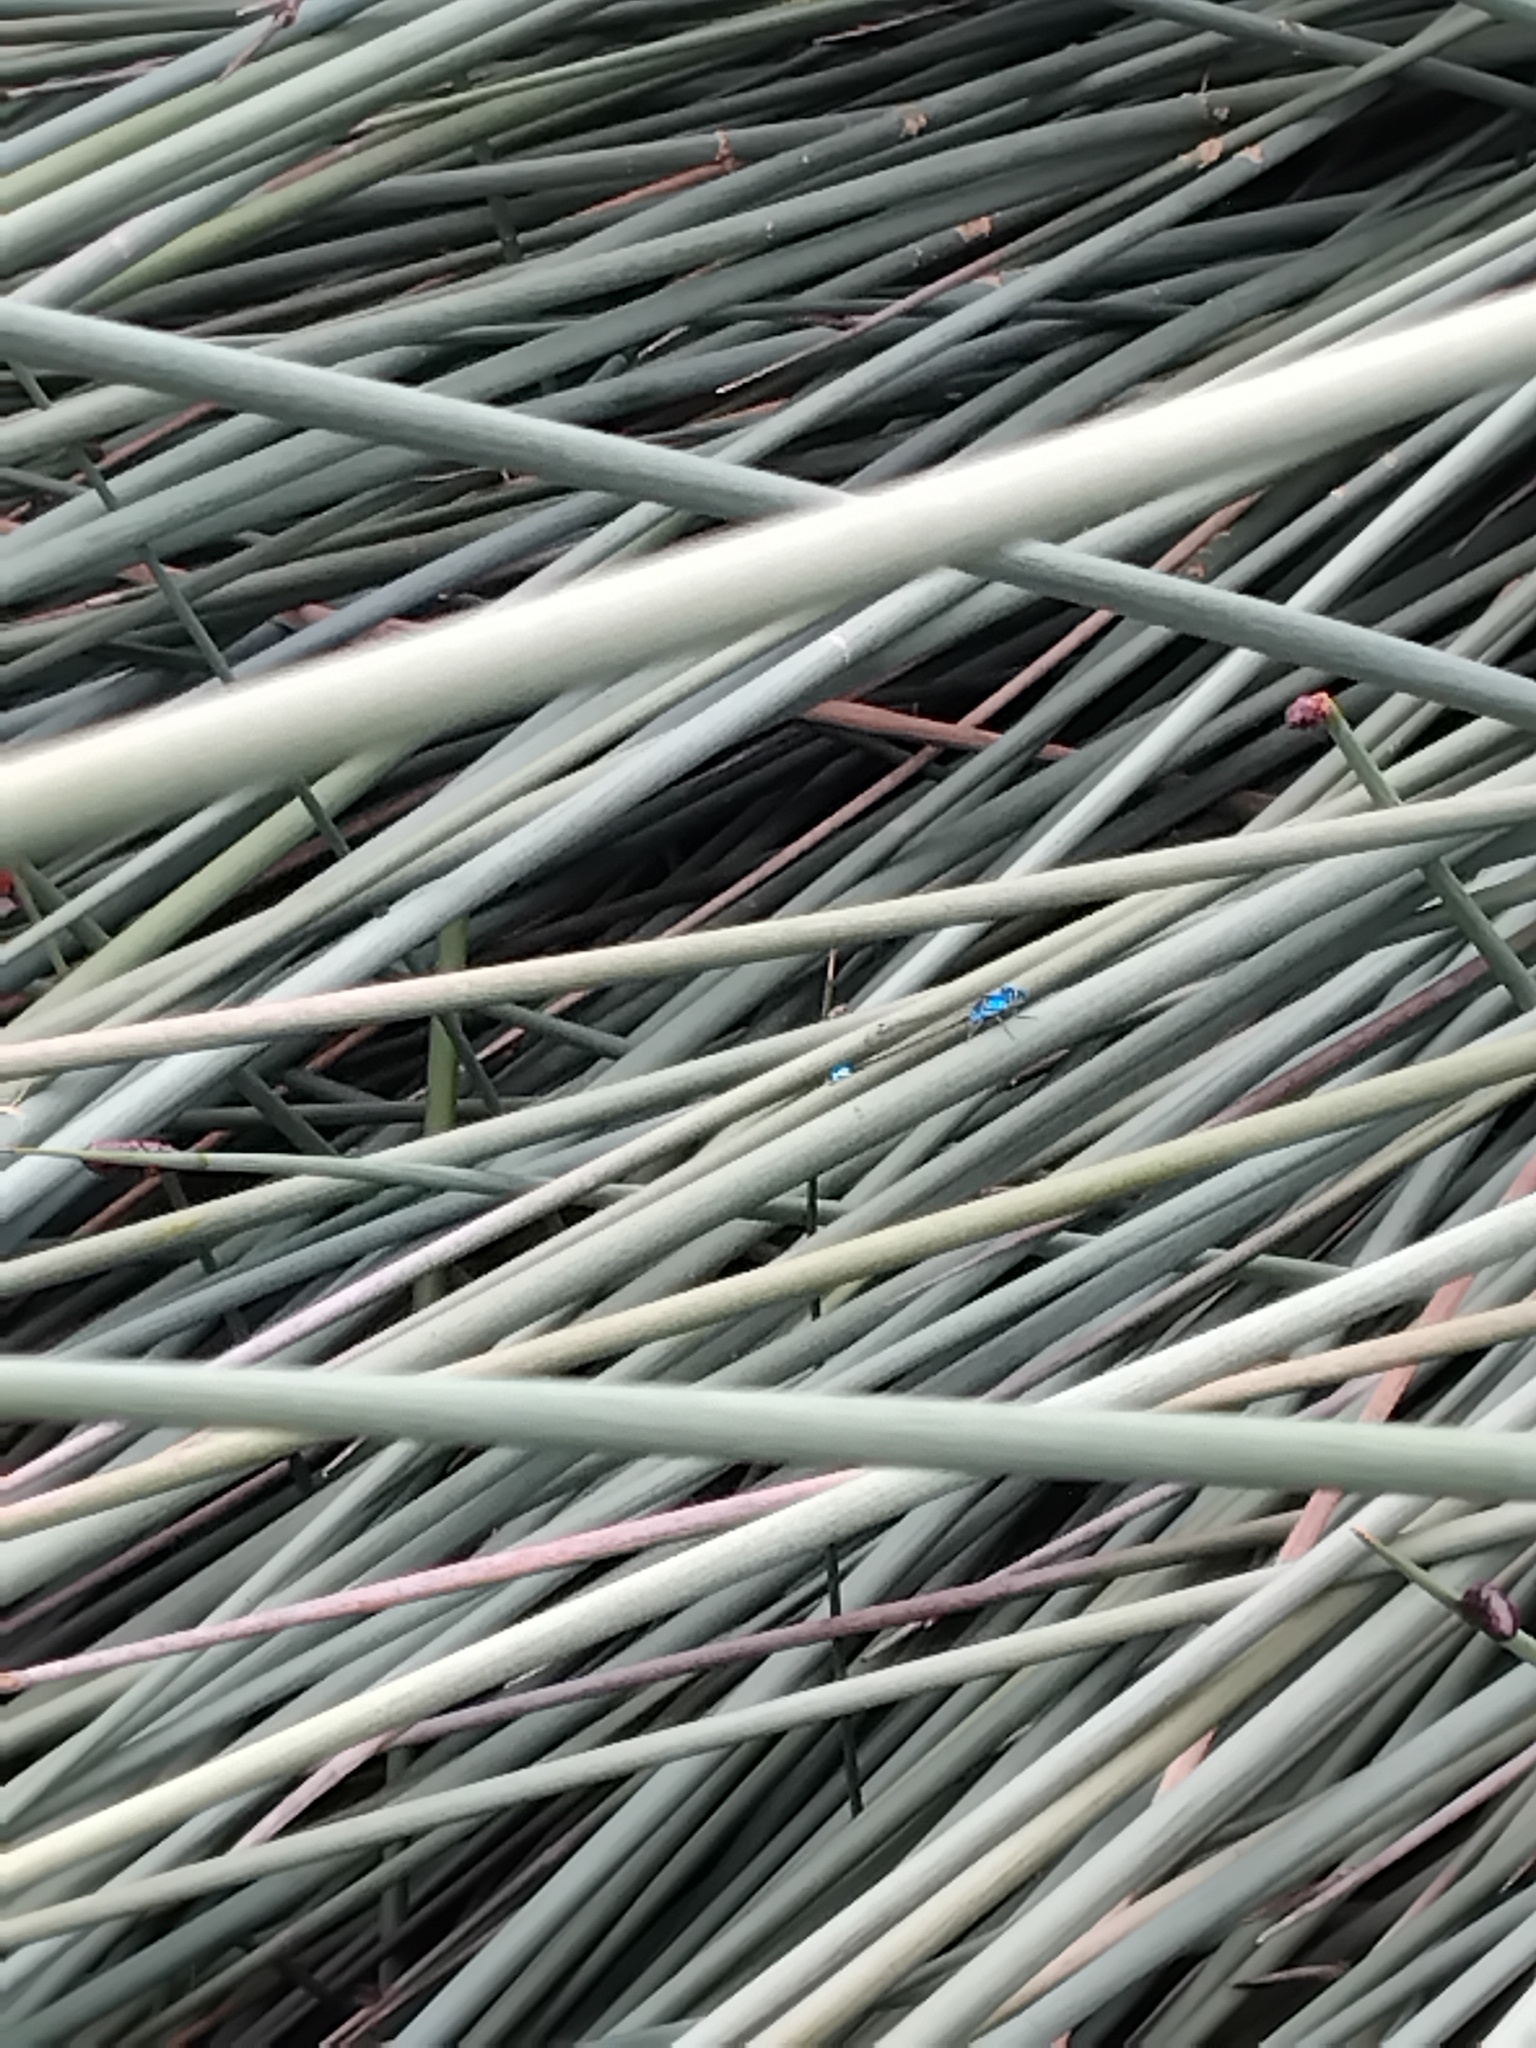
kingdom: Animalia
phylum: Arthropoda
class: Insecta
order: Odonata
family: Coenagrionidae
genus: Ischnura
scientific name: Ischnura heterosticta
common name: Common bluetail
